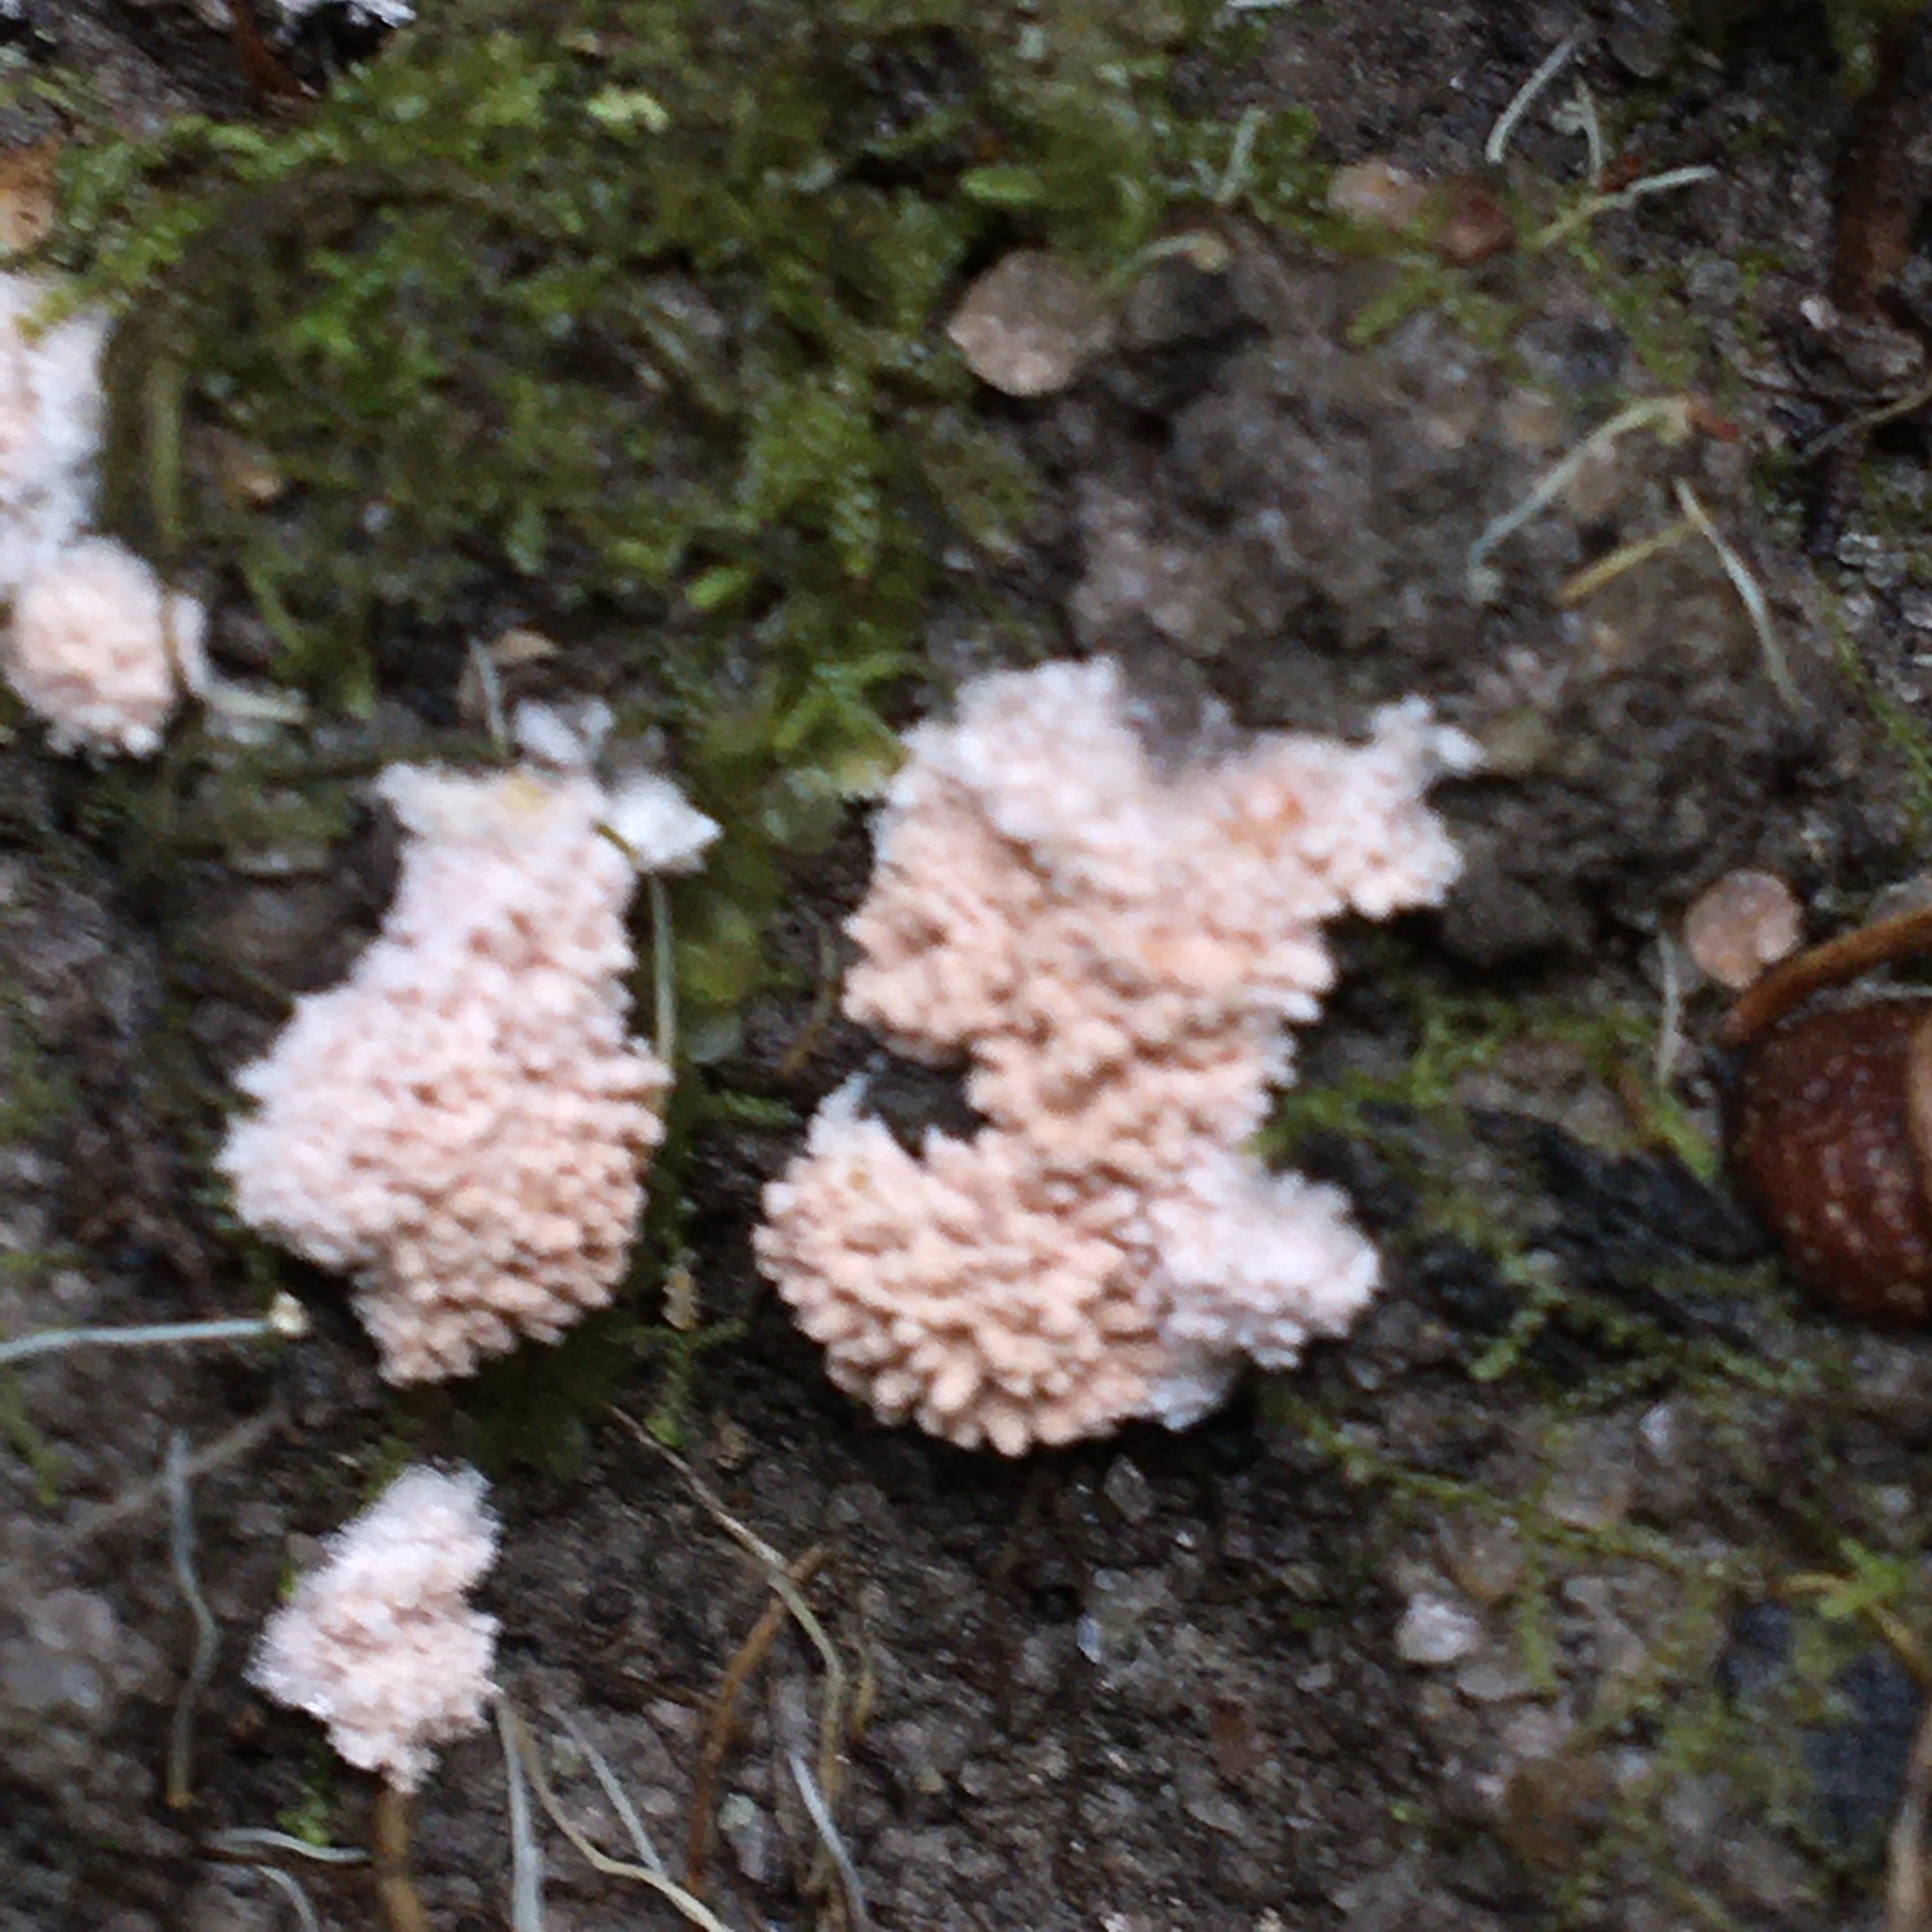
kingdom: Fungi
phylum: Ascomycota
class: Pezizomycetes
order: Pezizales
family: Pezizaceae
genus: Chromelosporiopsis
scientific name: Chromelosporiopsis carnea
